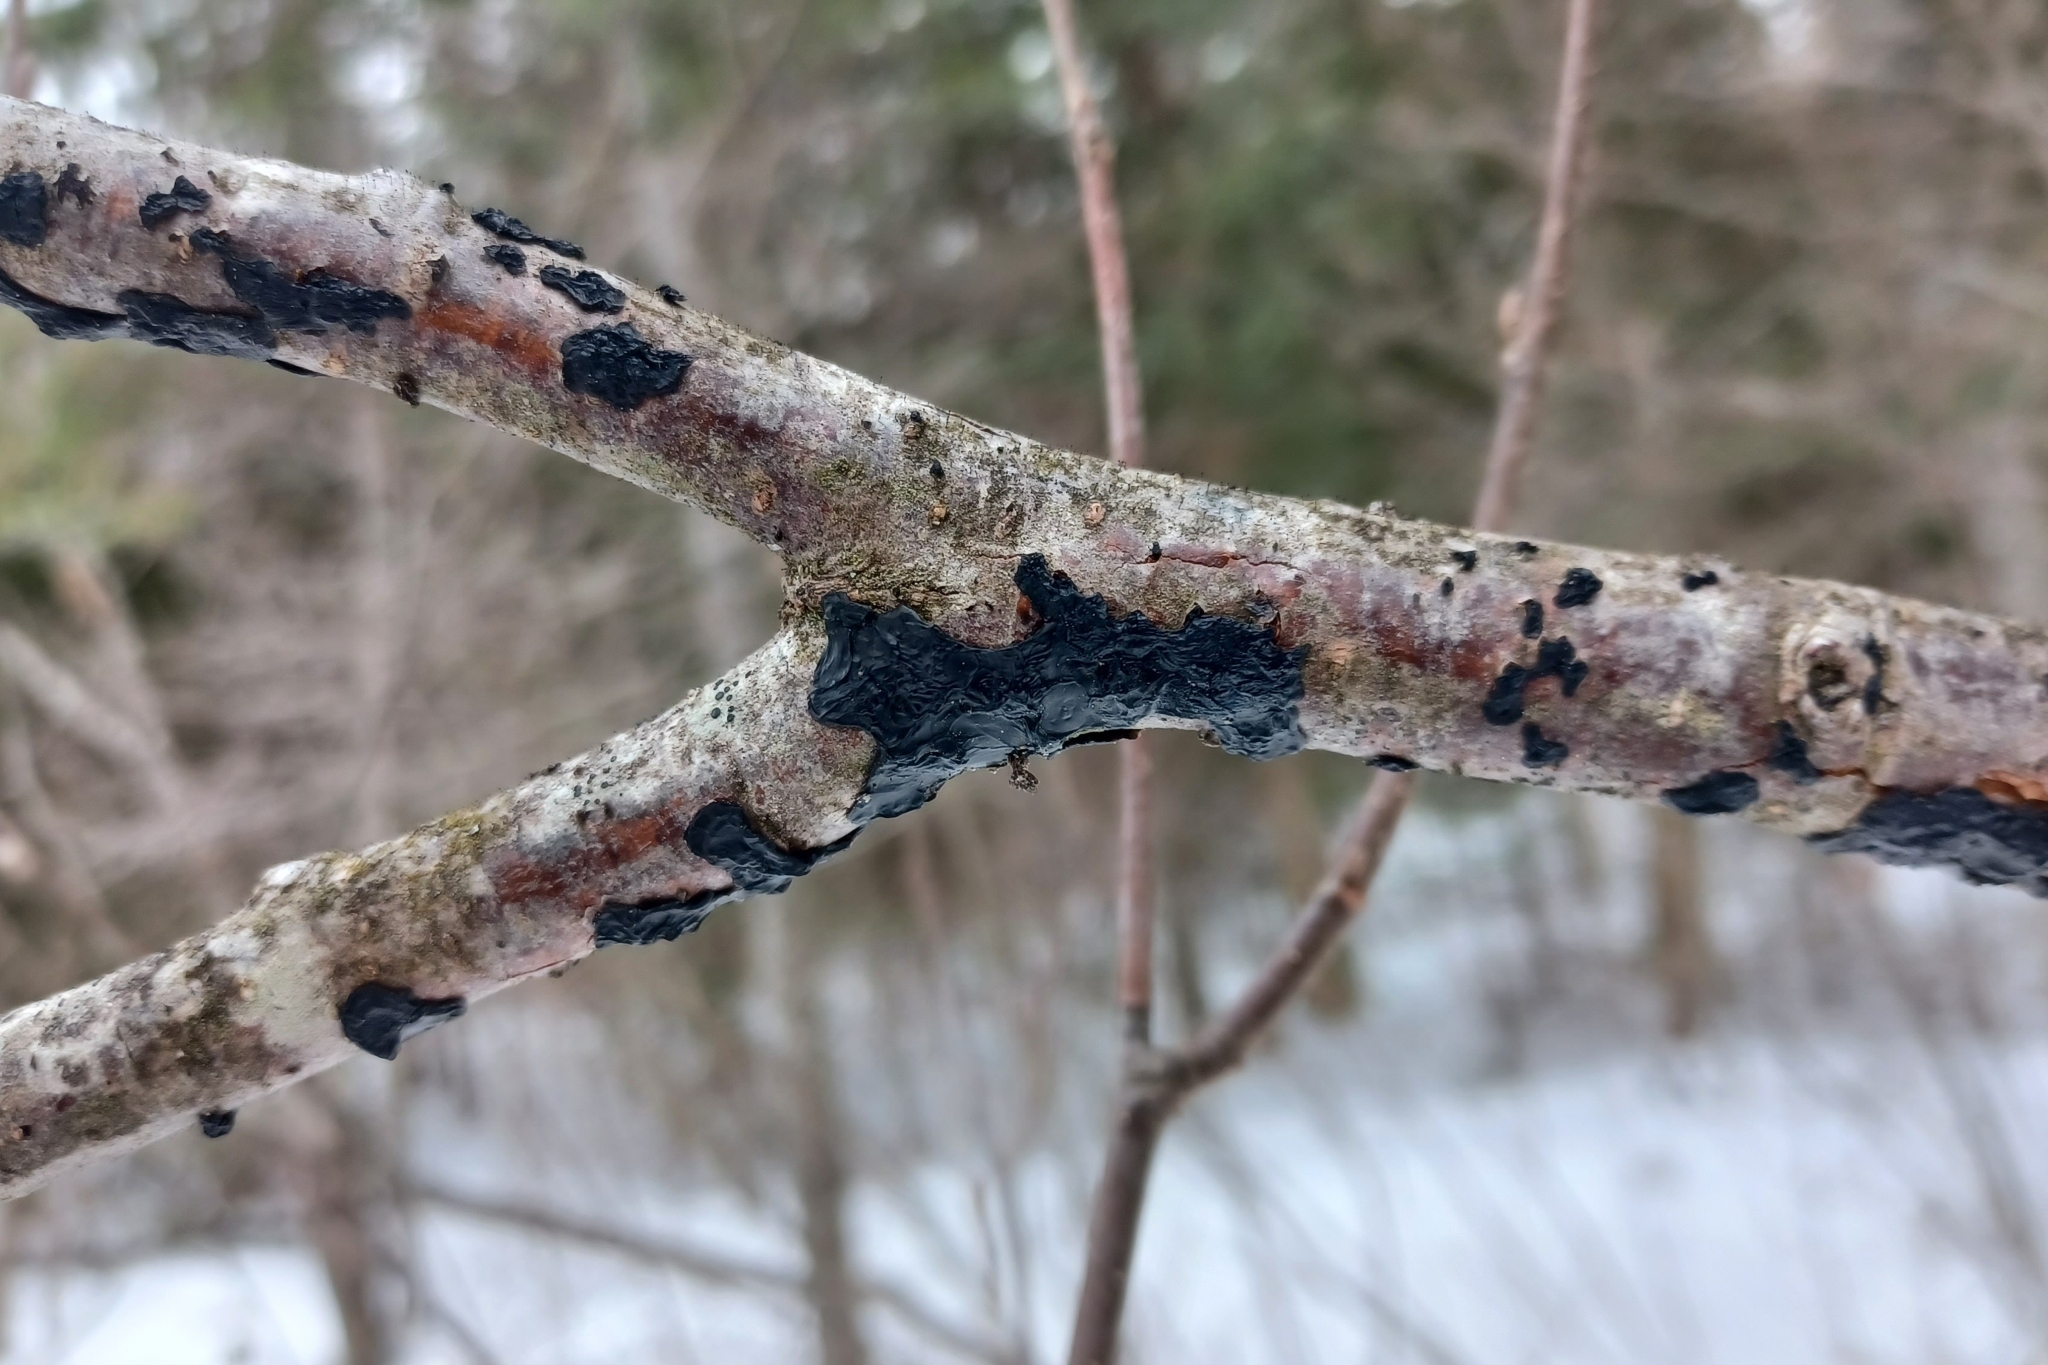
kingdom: Fungi
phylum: Basidiomycota
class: Agaricomycetes
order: Auriculariales
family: Auriculariaceae
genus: Exidia
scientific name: Exidia glandulosa
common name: Witches' butter
